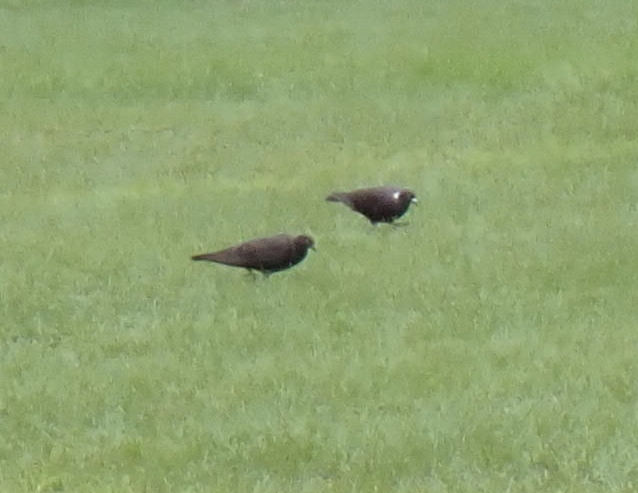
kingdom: Animalia
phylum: Chordata
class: Aves
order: Columbiformes
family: Columbidae
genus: Columba
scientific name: Columba livia
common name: Rock pigeon
